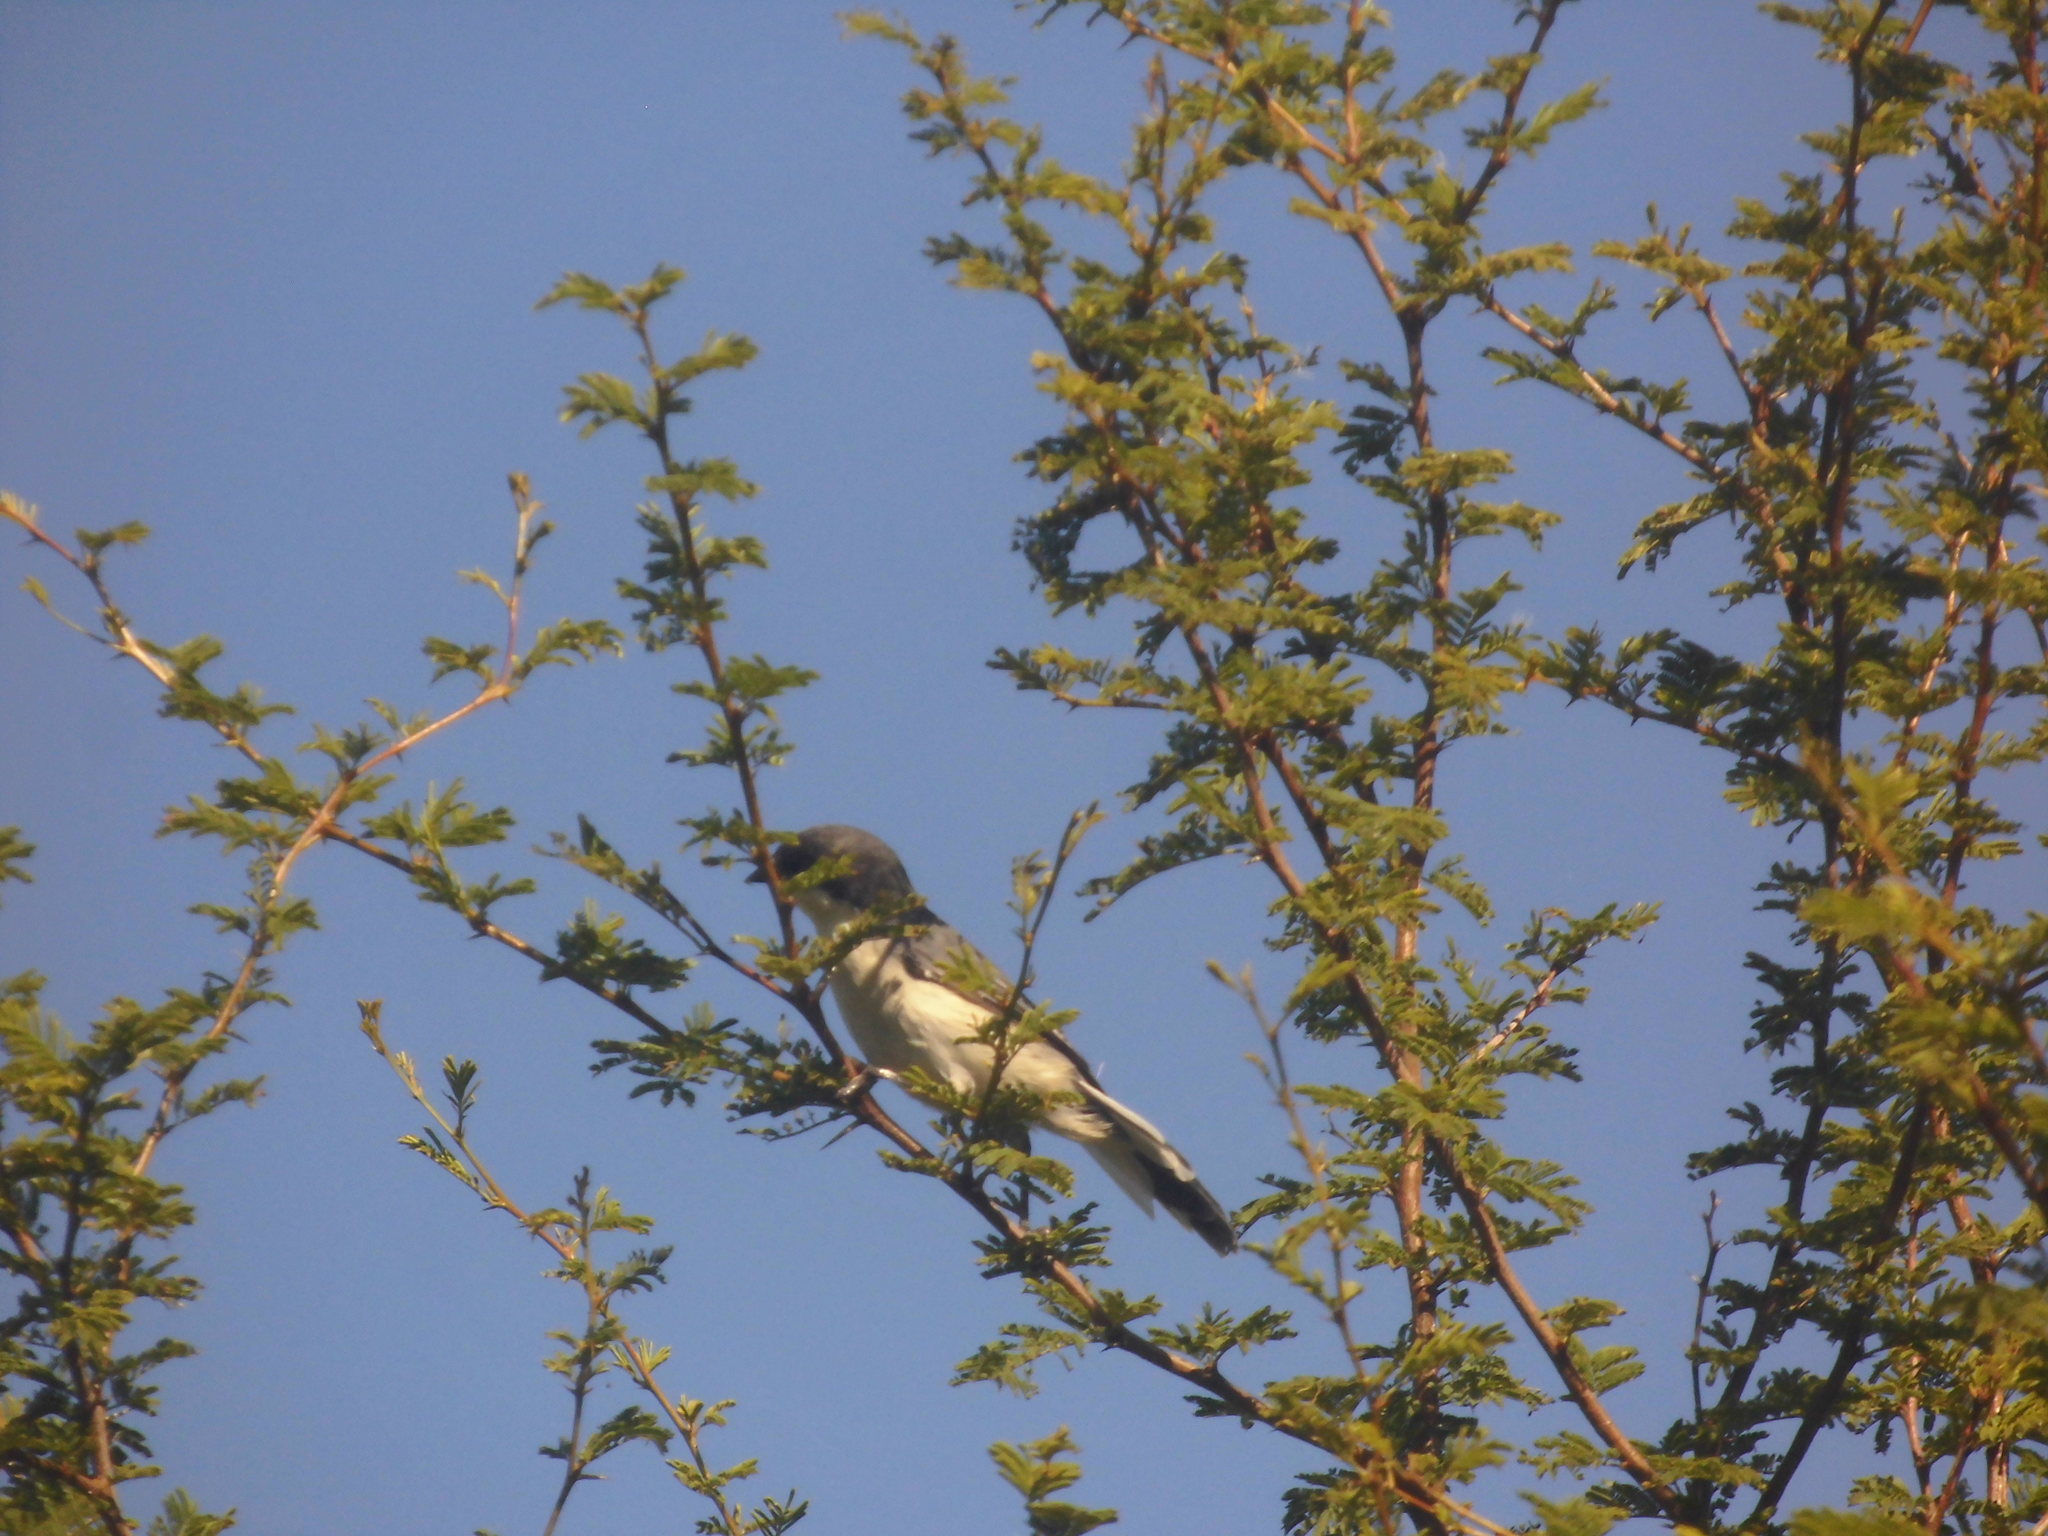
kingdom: Animalia
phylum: Chordata
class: Aves
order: Passeriformes
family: Thraupidae
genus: Microspingus
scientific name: Microspingus melanoleucus
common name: Black-capped warbling-finch
